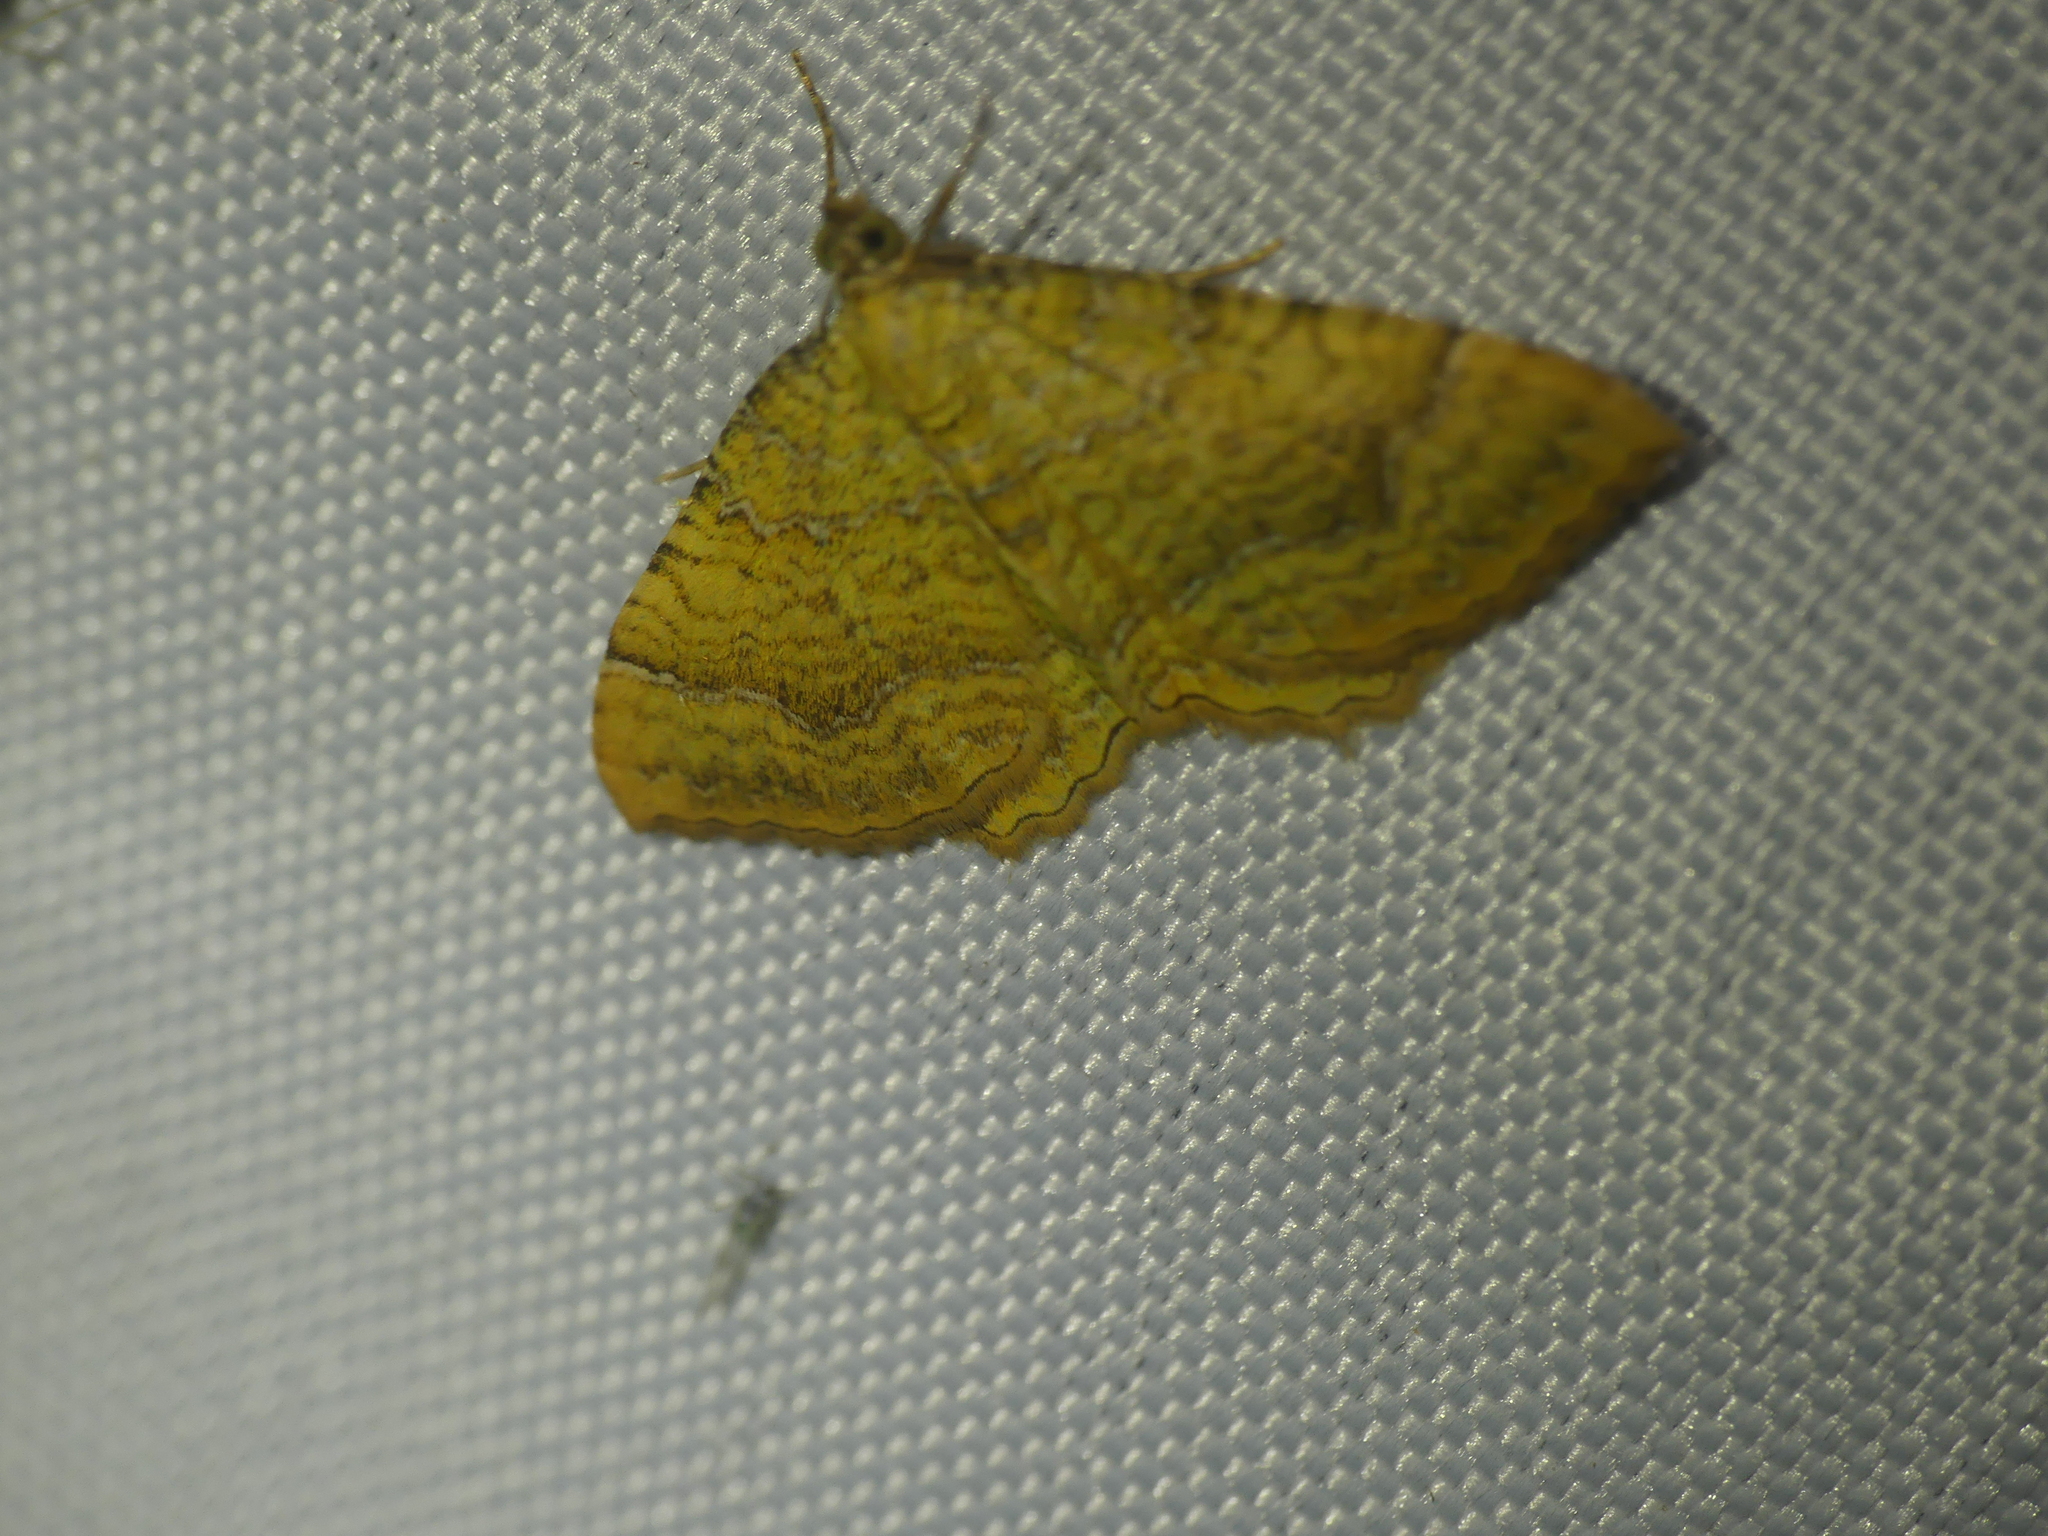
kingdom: Animalia
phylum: Arthropoda
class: Insecta
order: Lepidoptera
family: Geometridae
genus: Camptogramma
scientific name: Camptogramma bilineata
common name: Yellow shell
